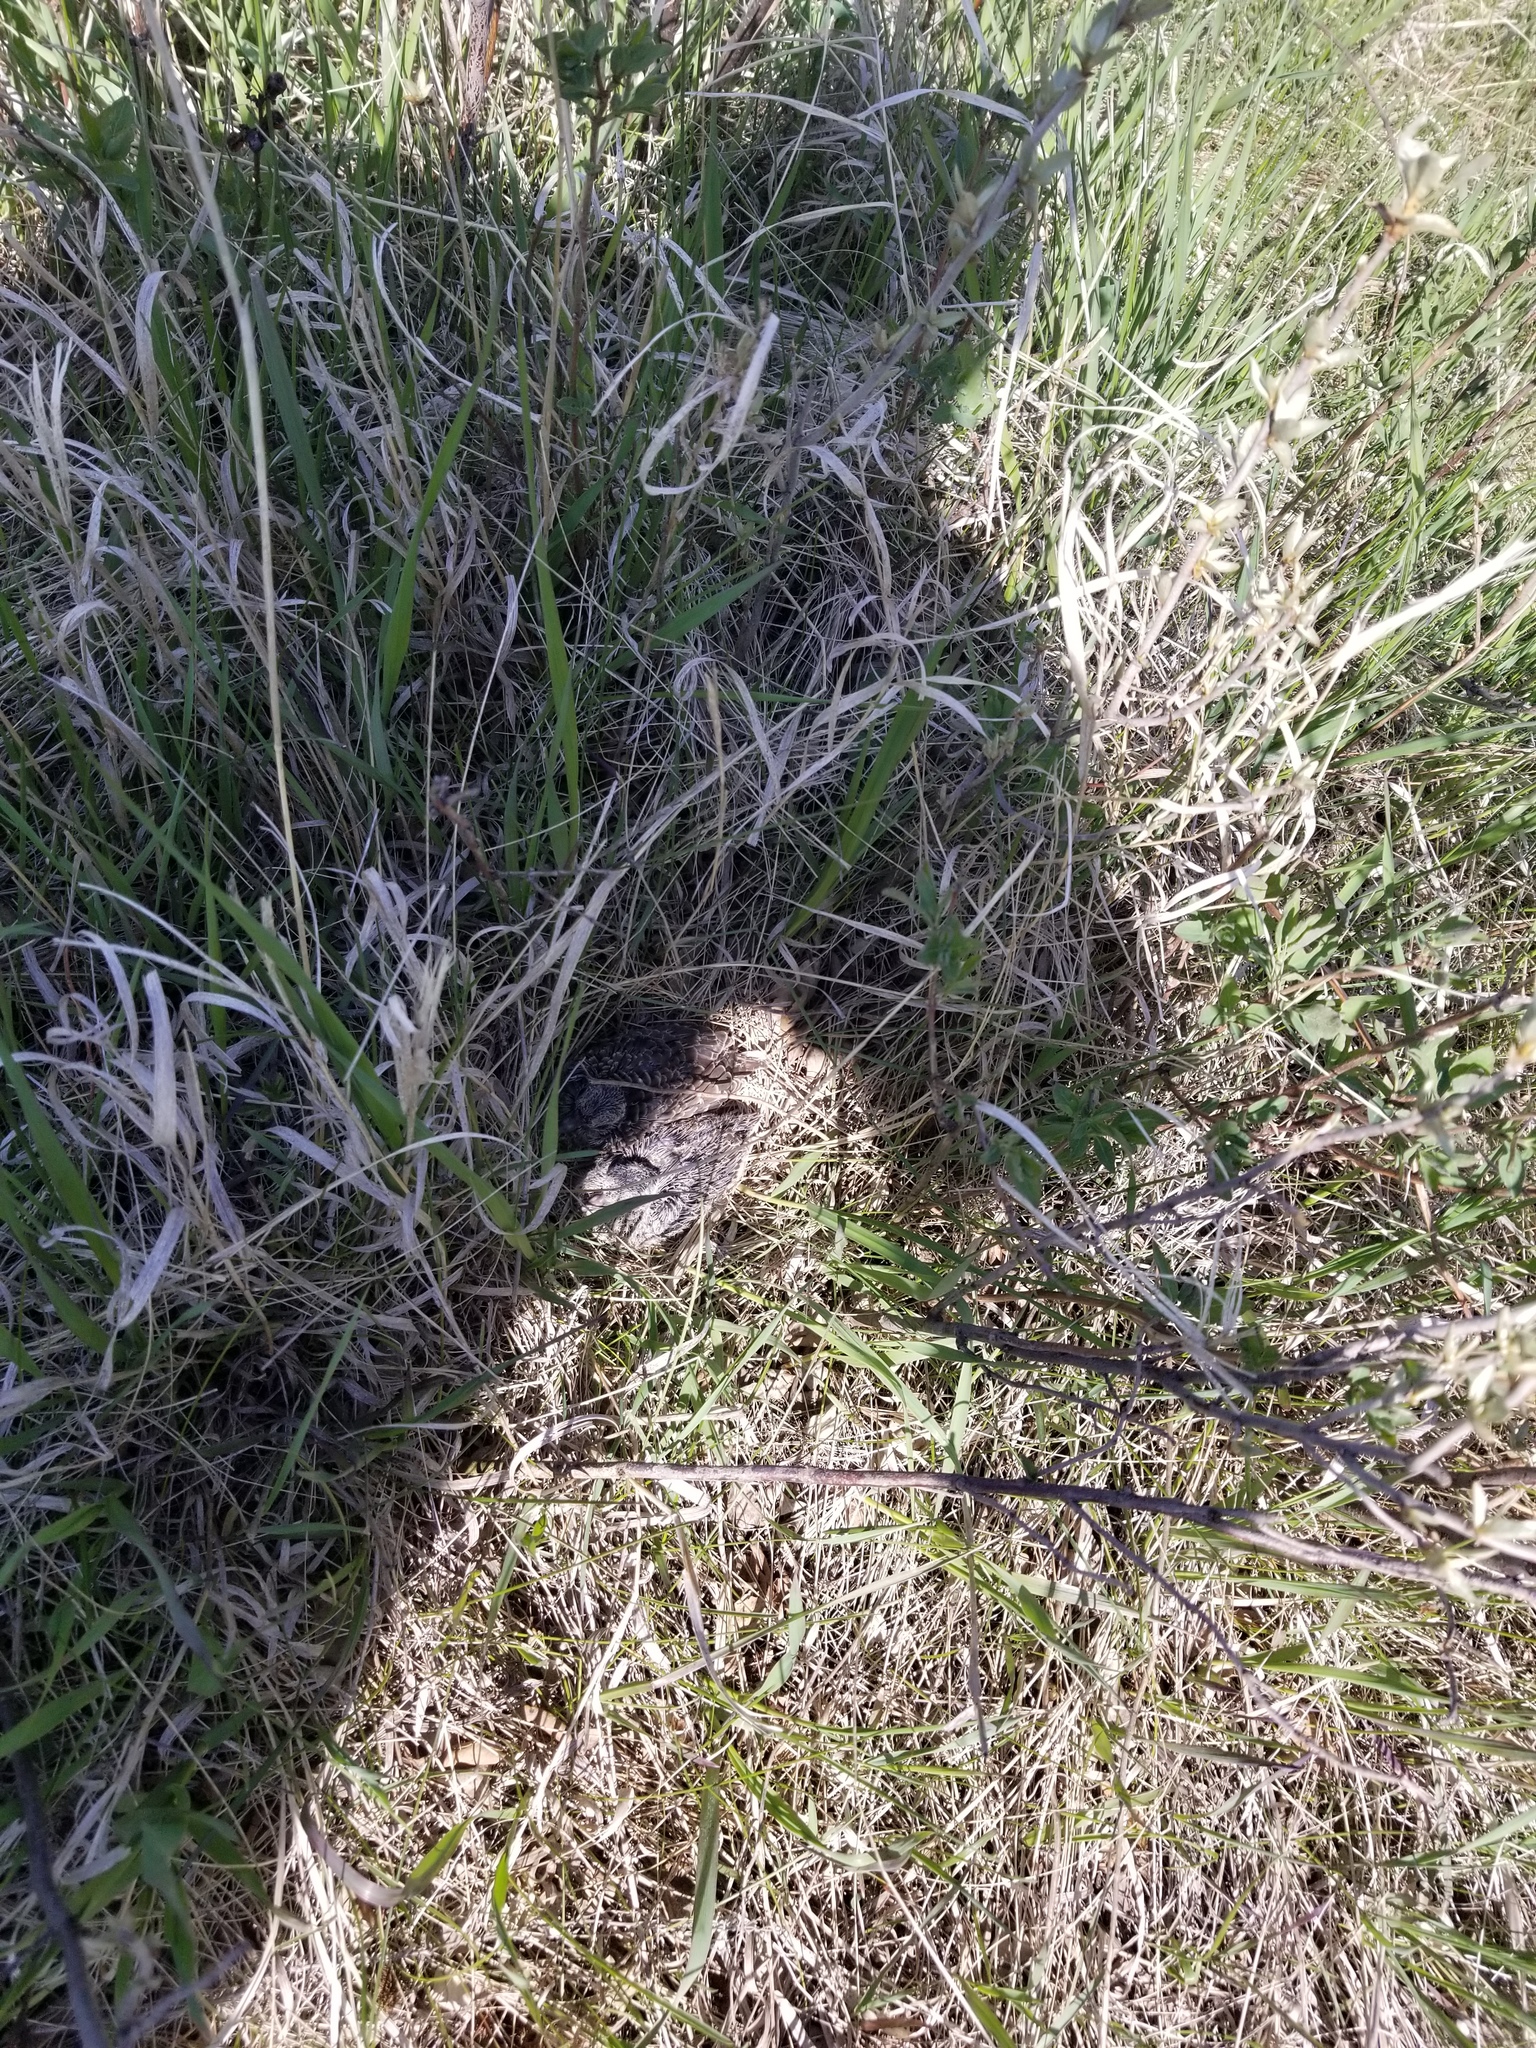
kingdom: Animalia
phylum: Chordata
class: Aves
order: Columbiformes
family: Columbidae
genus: Zenaida
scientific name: Zenaida macroura
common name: Mourning dove
